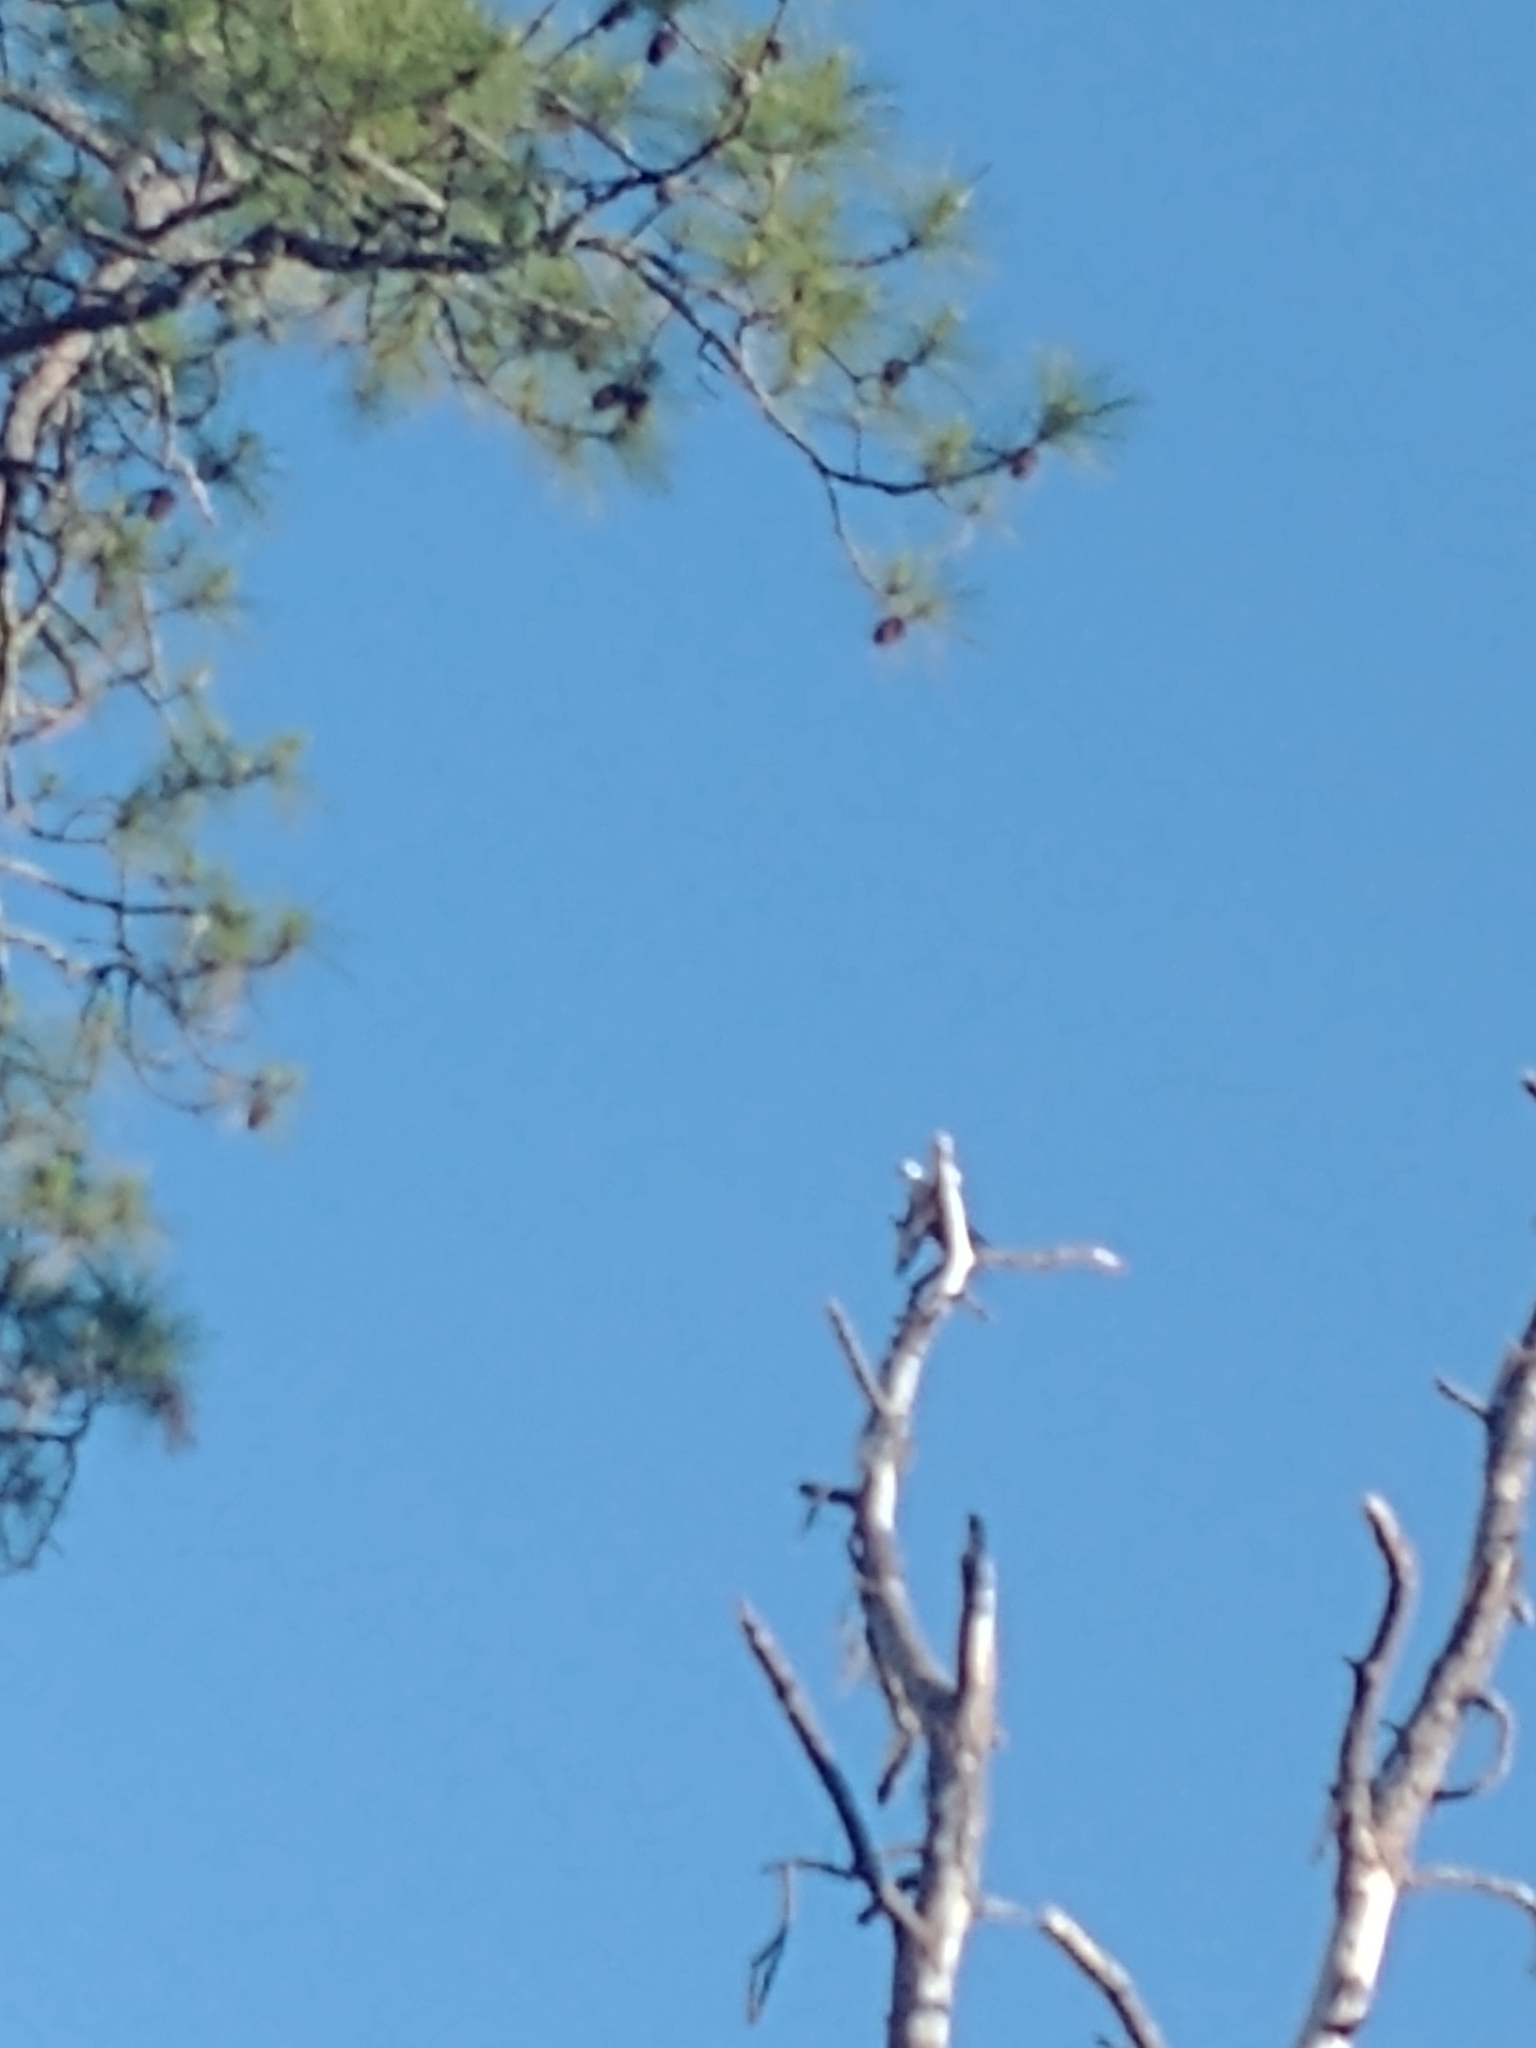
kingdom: Animalia
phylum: Chordata
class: Aves
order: Accipitriformes
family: Accipitridae
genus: Elanoides
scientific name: Elanoides forficatus
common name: Swallow-tailed kite
